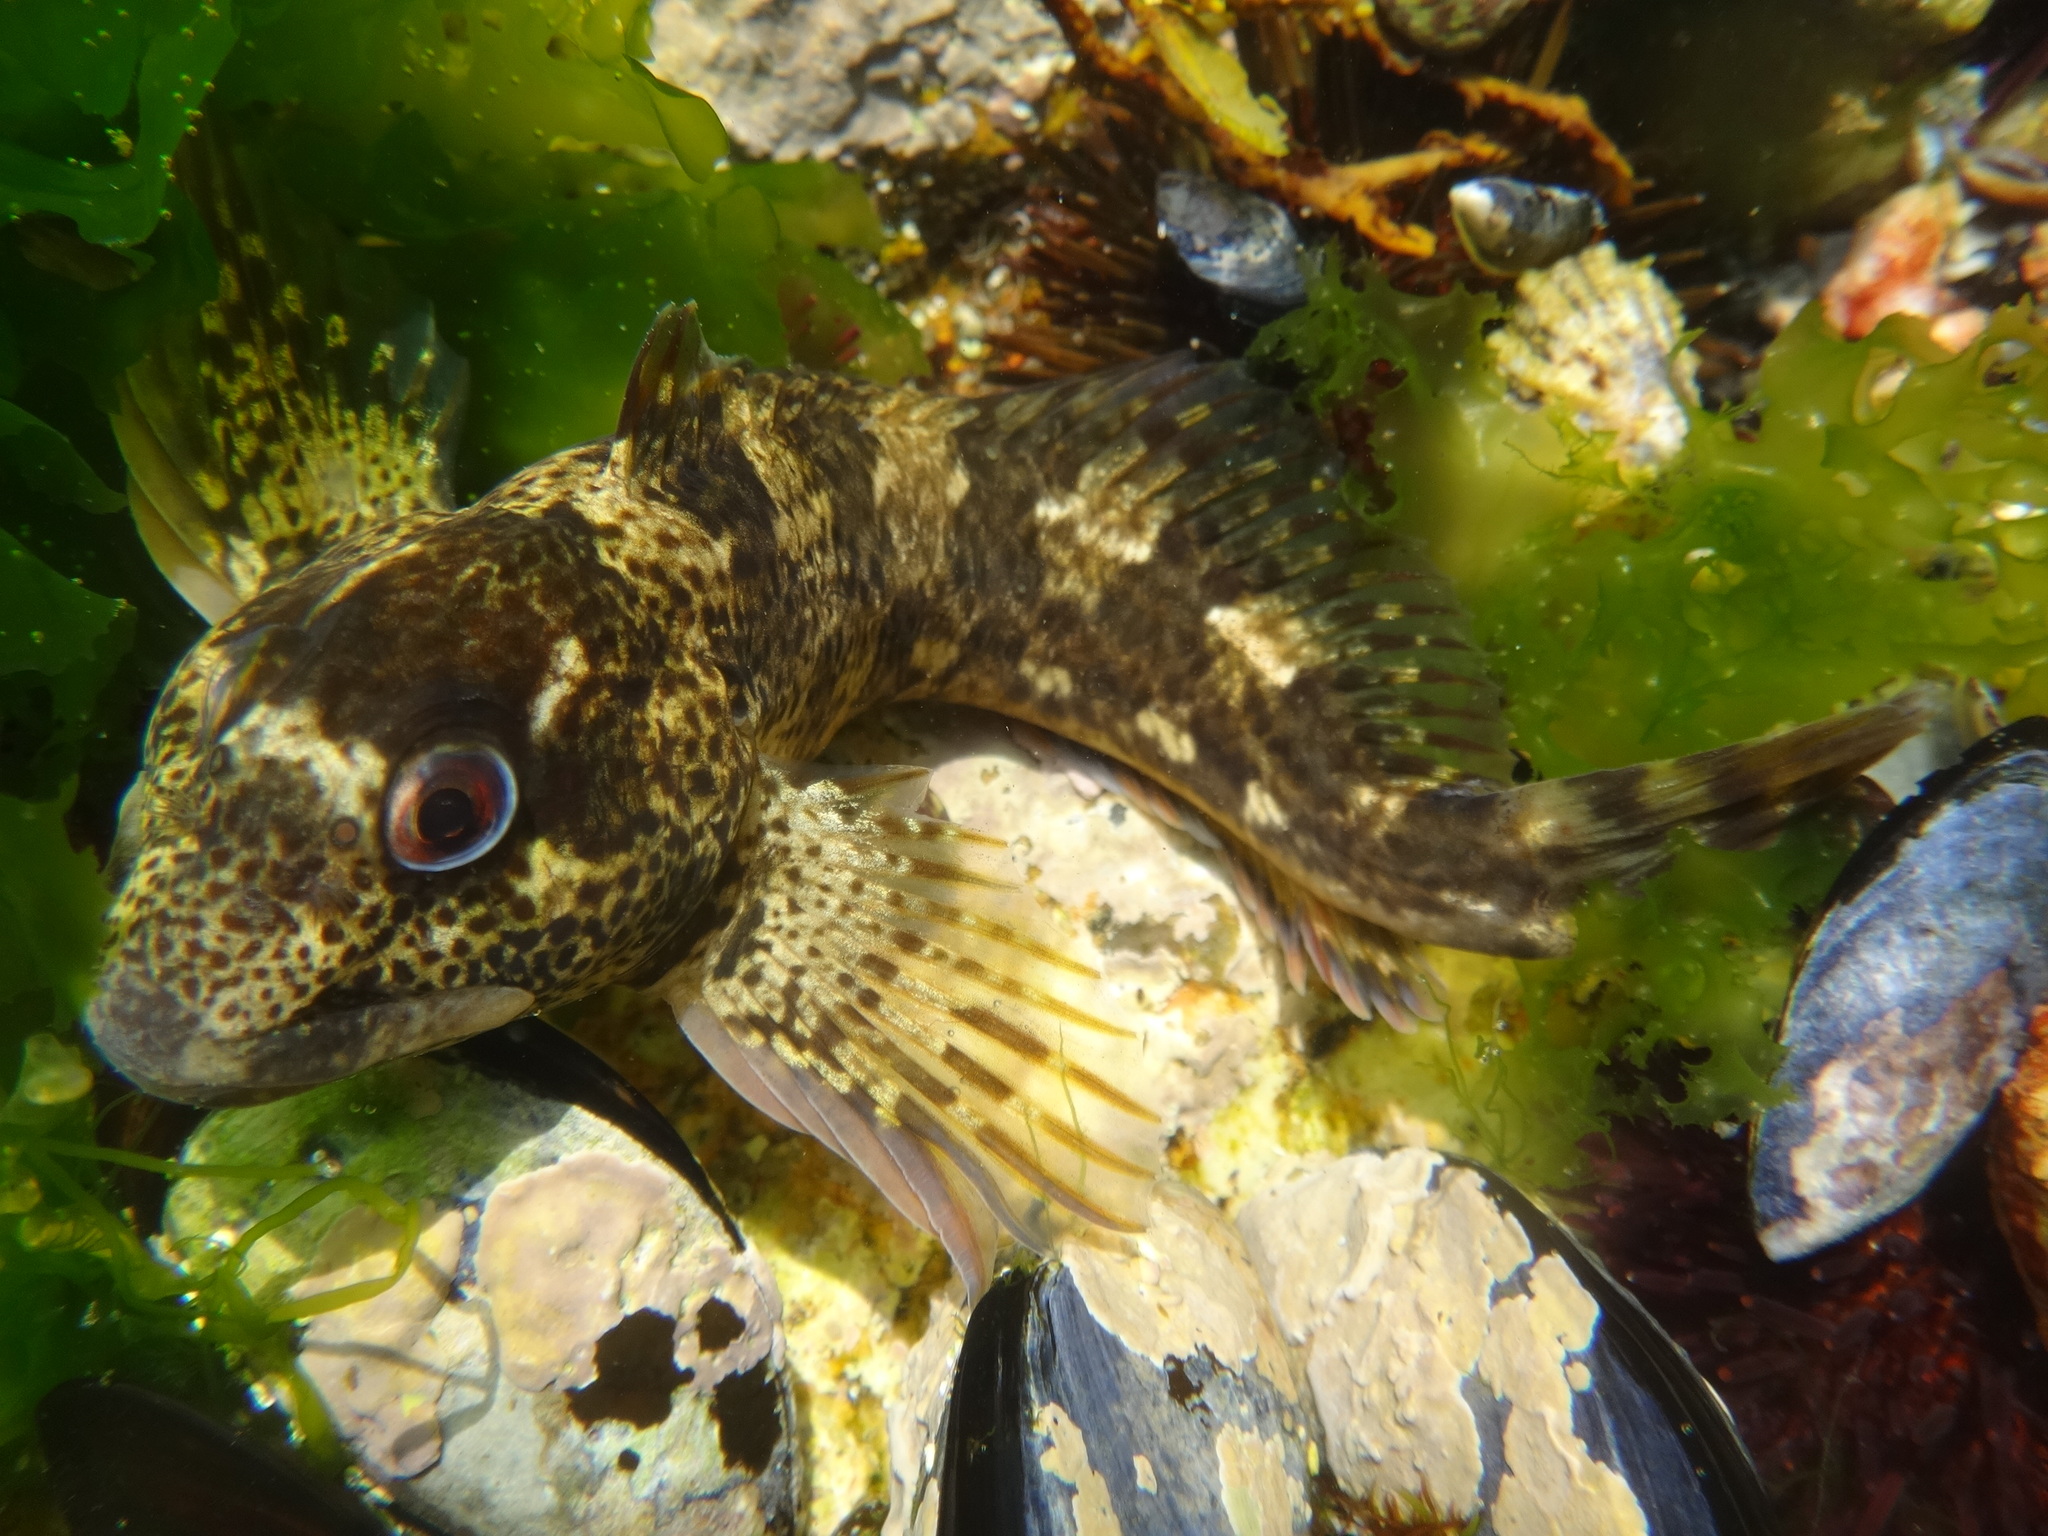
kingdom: Animalia
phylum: Chordata
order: Perciformes
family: Blenniidae
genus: Lipophrys
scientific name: Lipophrys pholis
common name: Shanny
